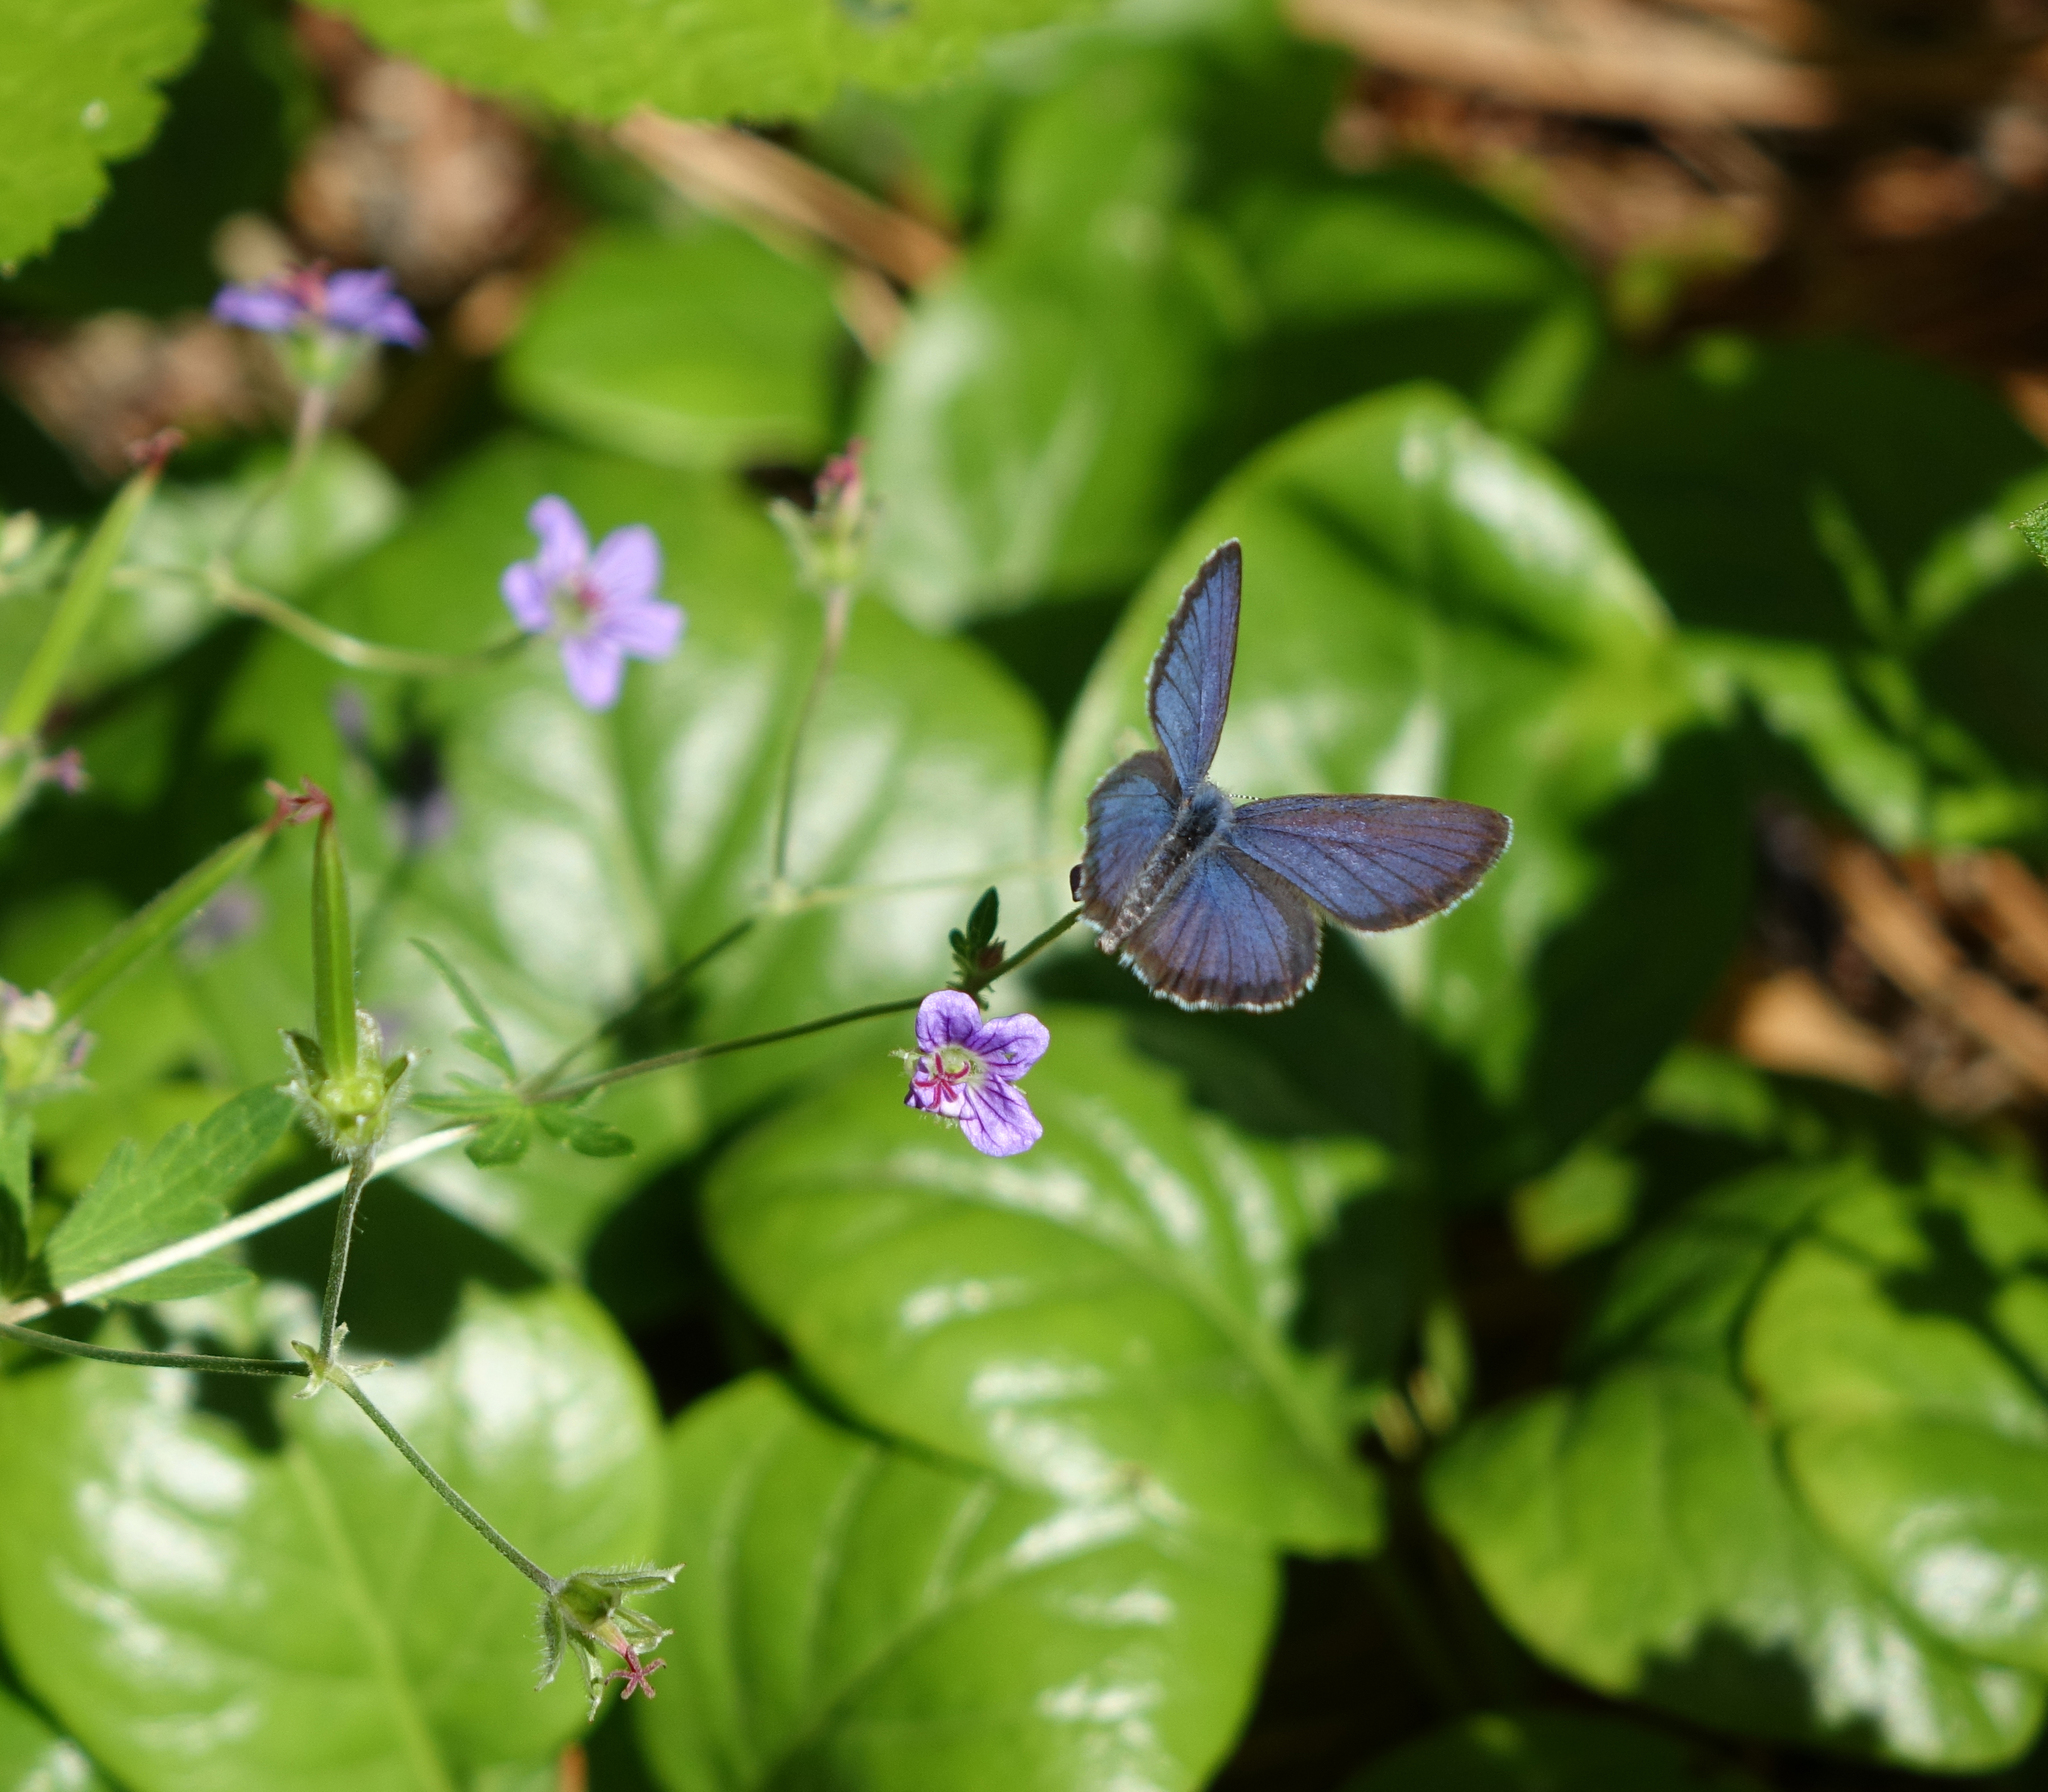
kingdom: Animalia
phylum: Arthropoda
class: Insecta
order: Lepidoptera
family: Lycaenidae
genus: Vacciniina
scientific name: Vacciniina optilete
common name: Cranberry blue
